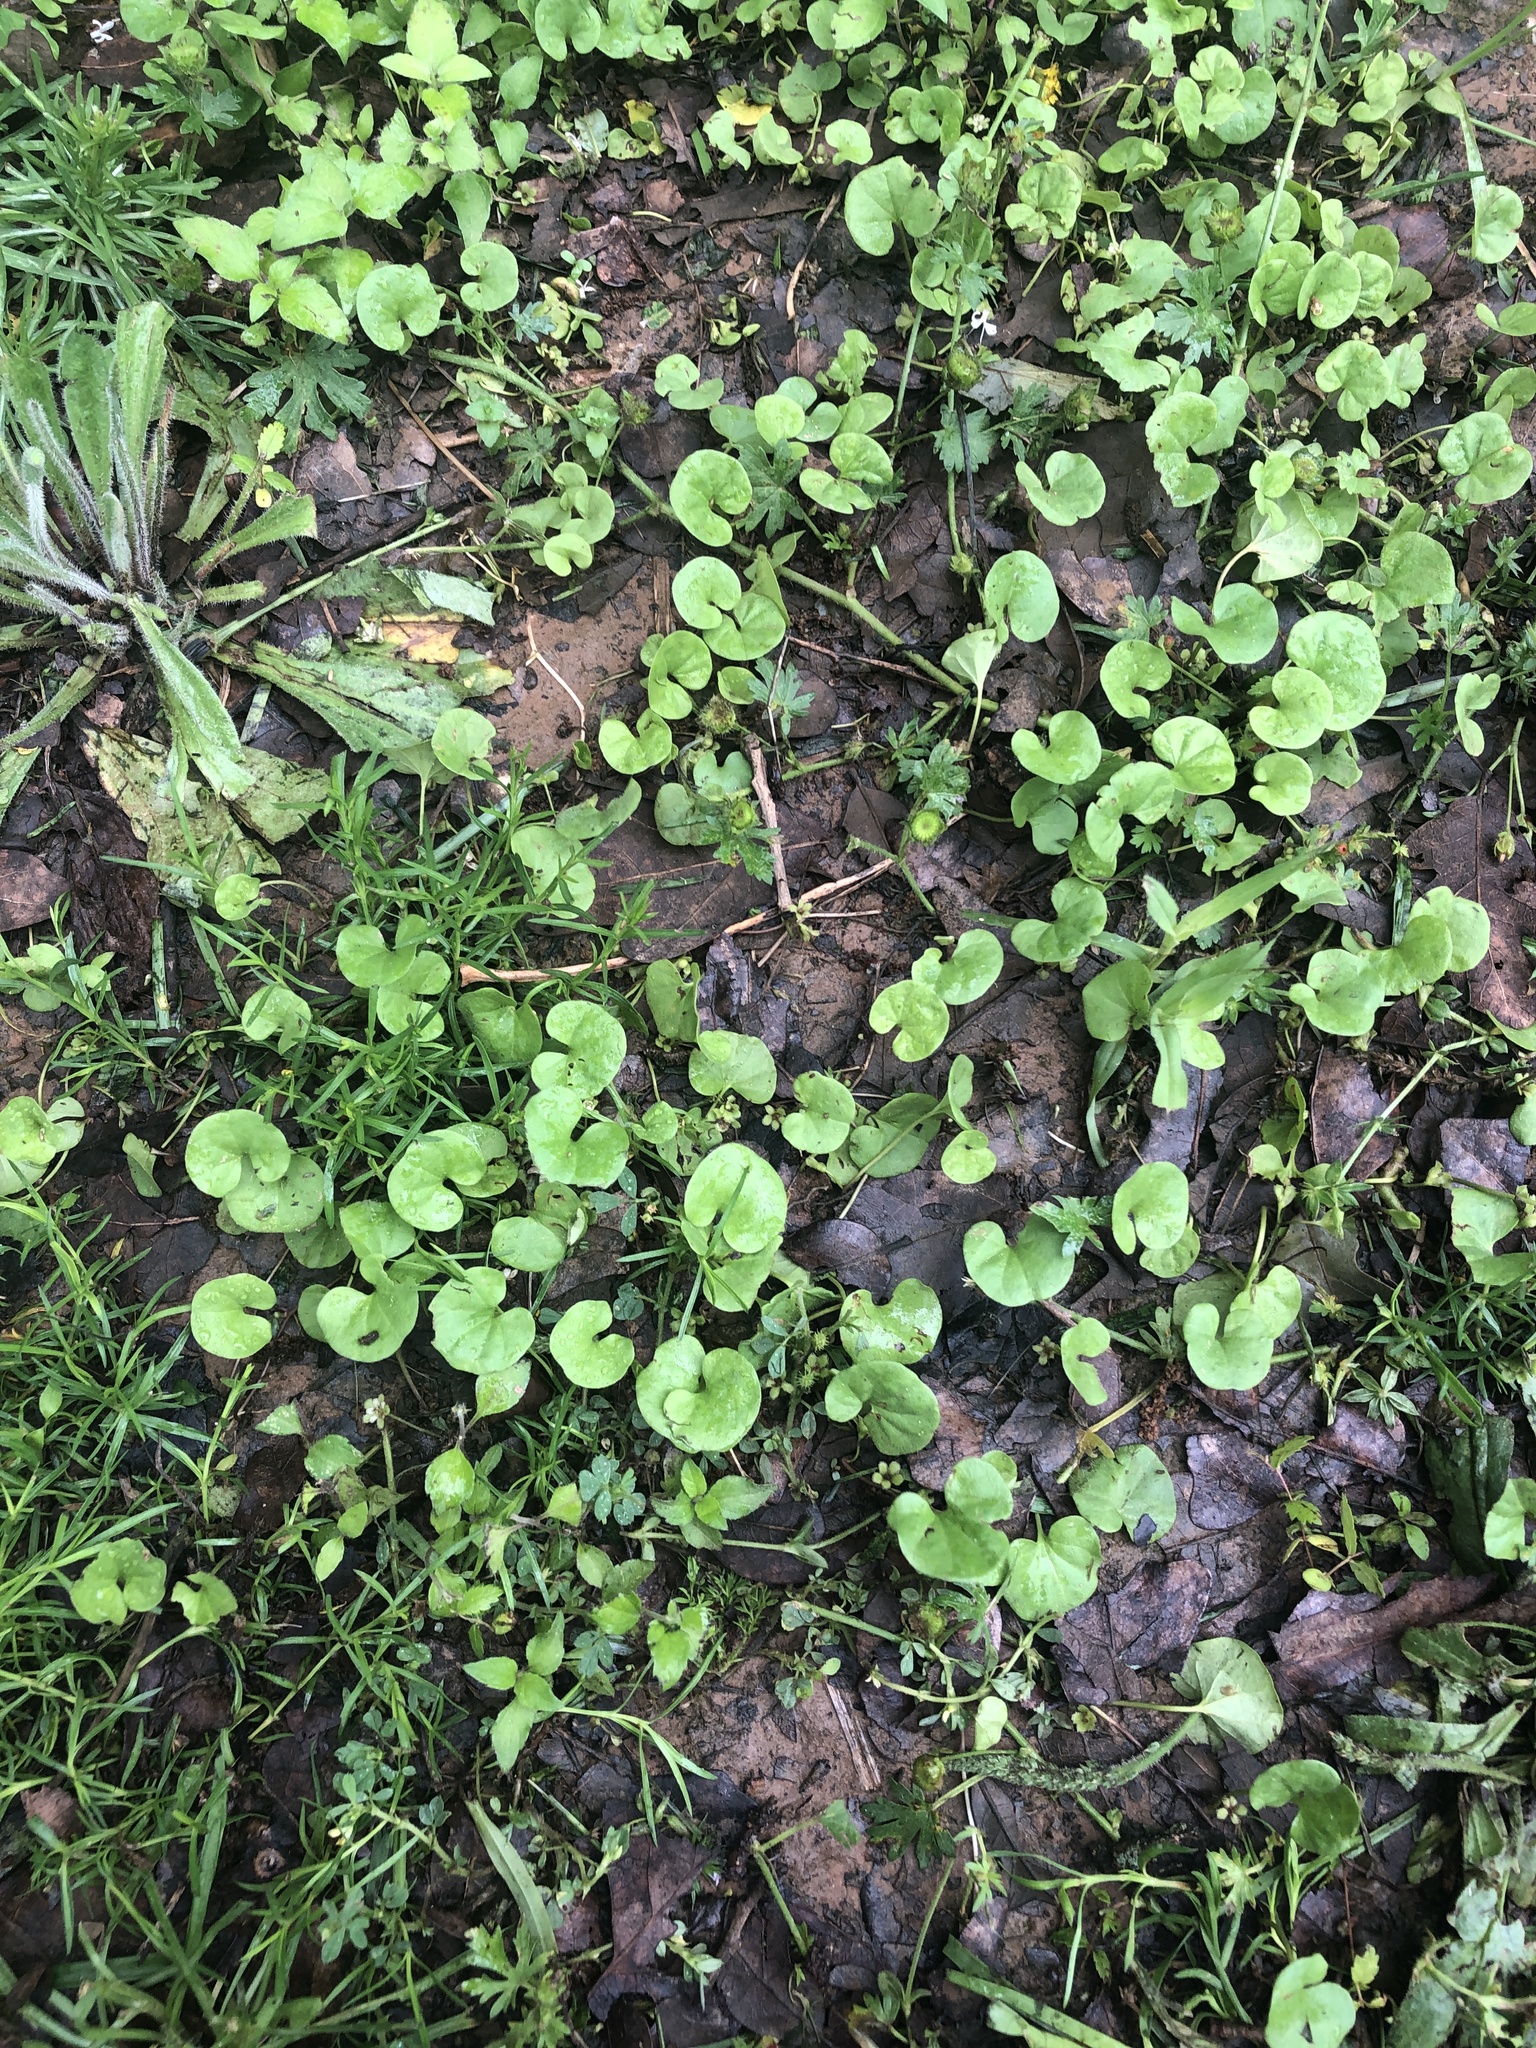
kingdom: Plantae
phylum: Tracheophyta
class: Magnoliopsida
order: Solanales
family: Convolvulaceae
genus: Dichondra
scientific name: Dichondra carolinensis
